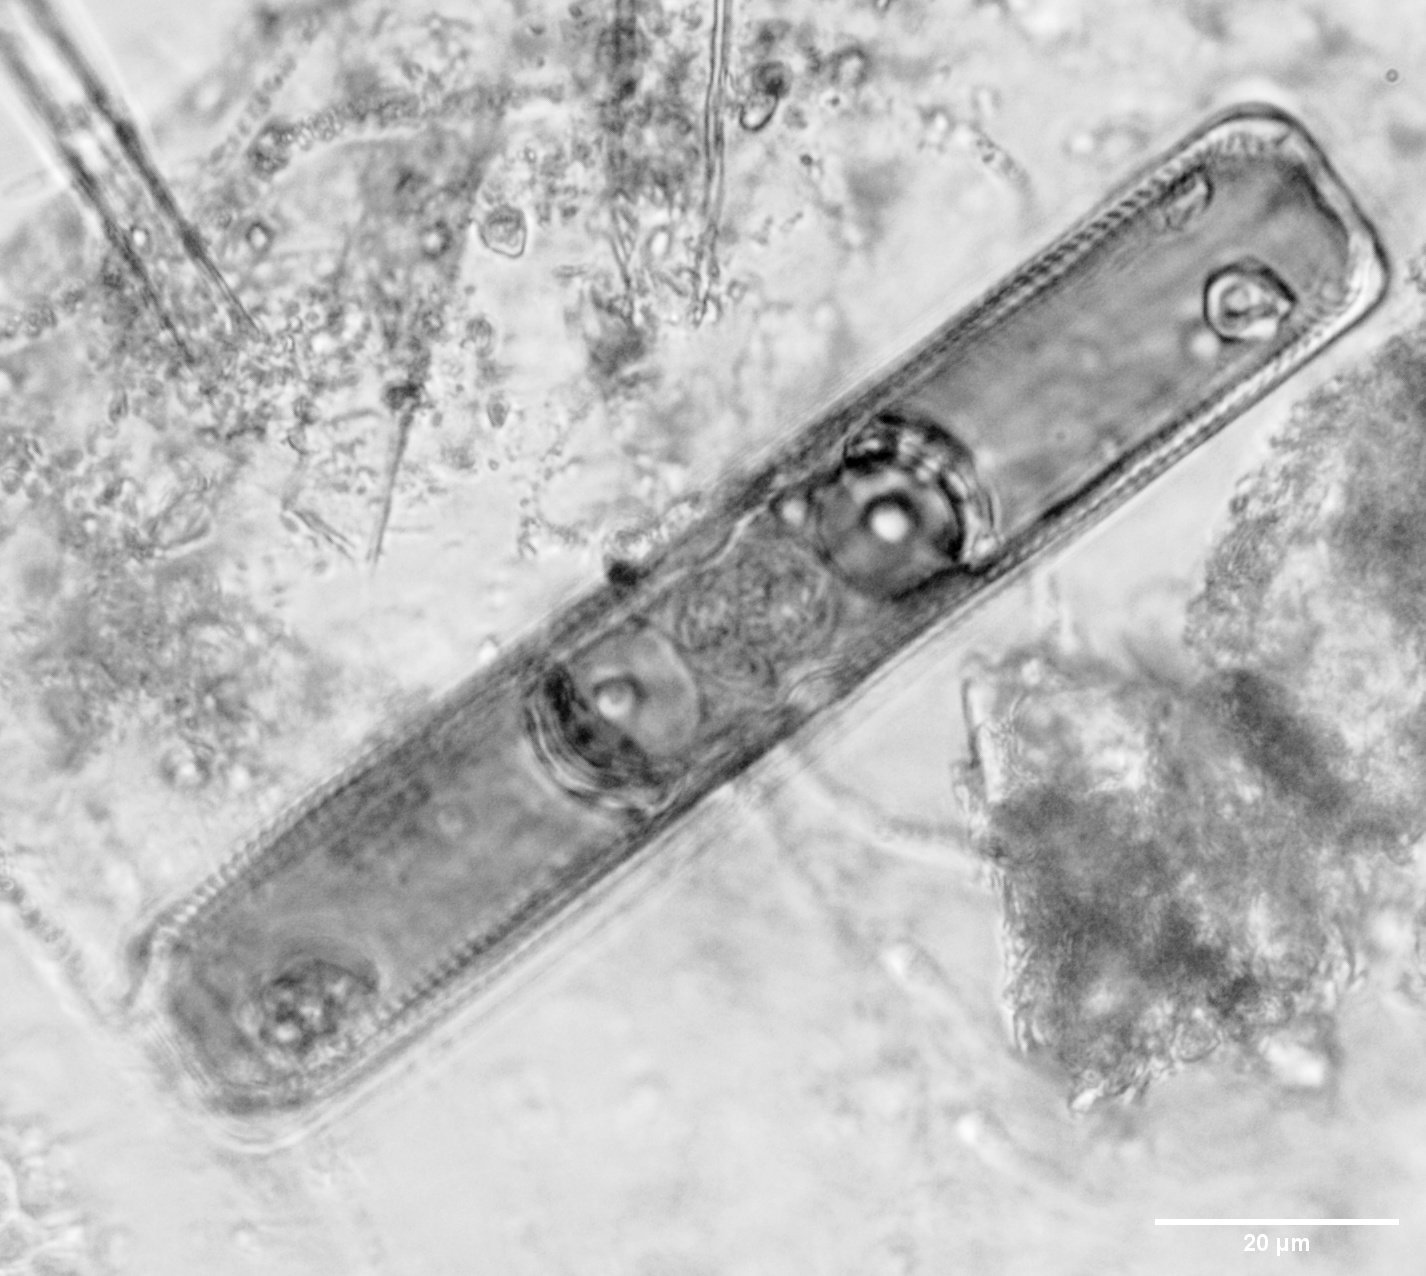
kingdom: Chromista
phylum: Ochrophyta
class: Bacillariophyceae
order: Naviculales
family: Naviculaceae
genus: Navicula
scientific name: Navicula oblonga
